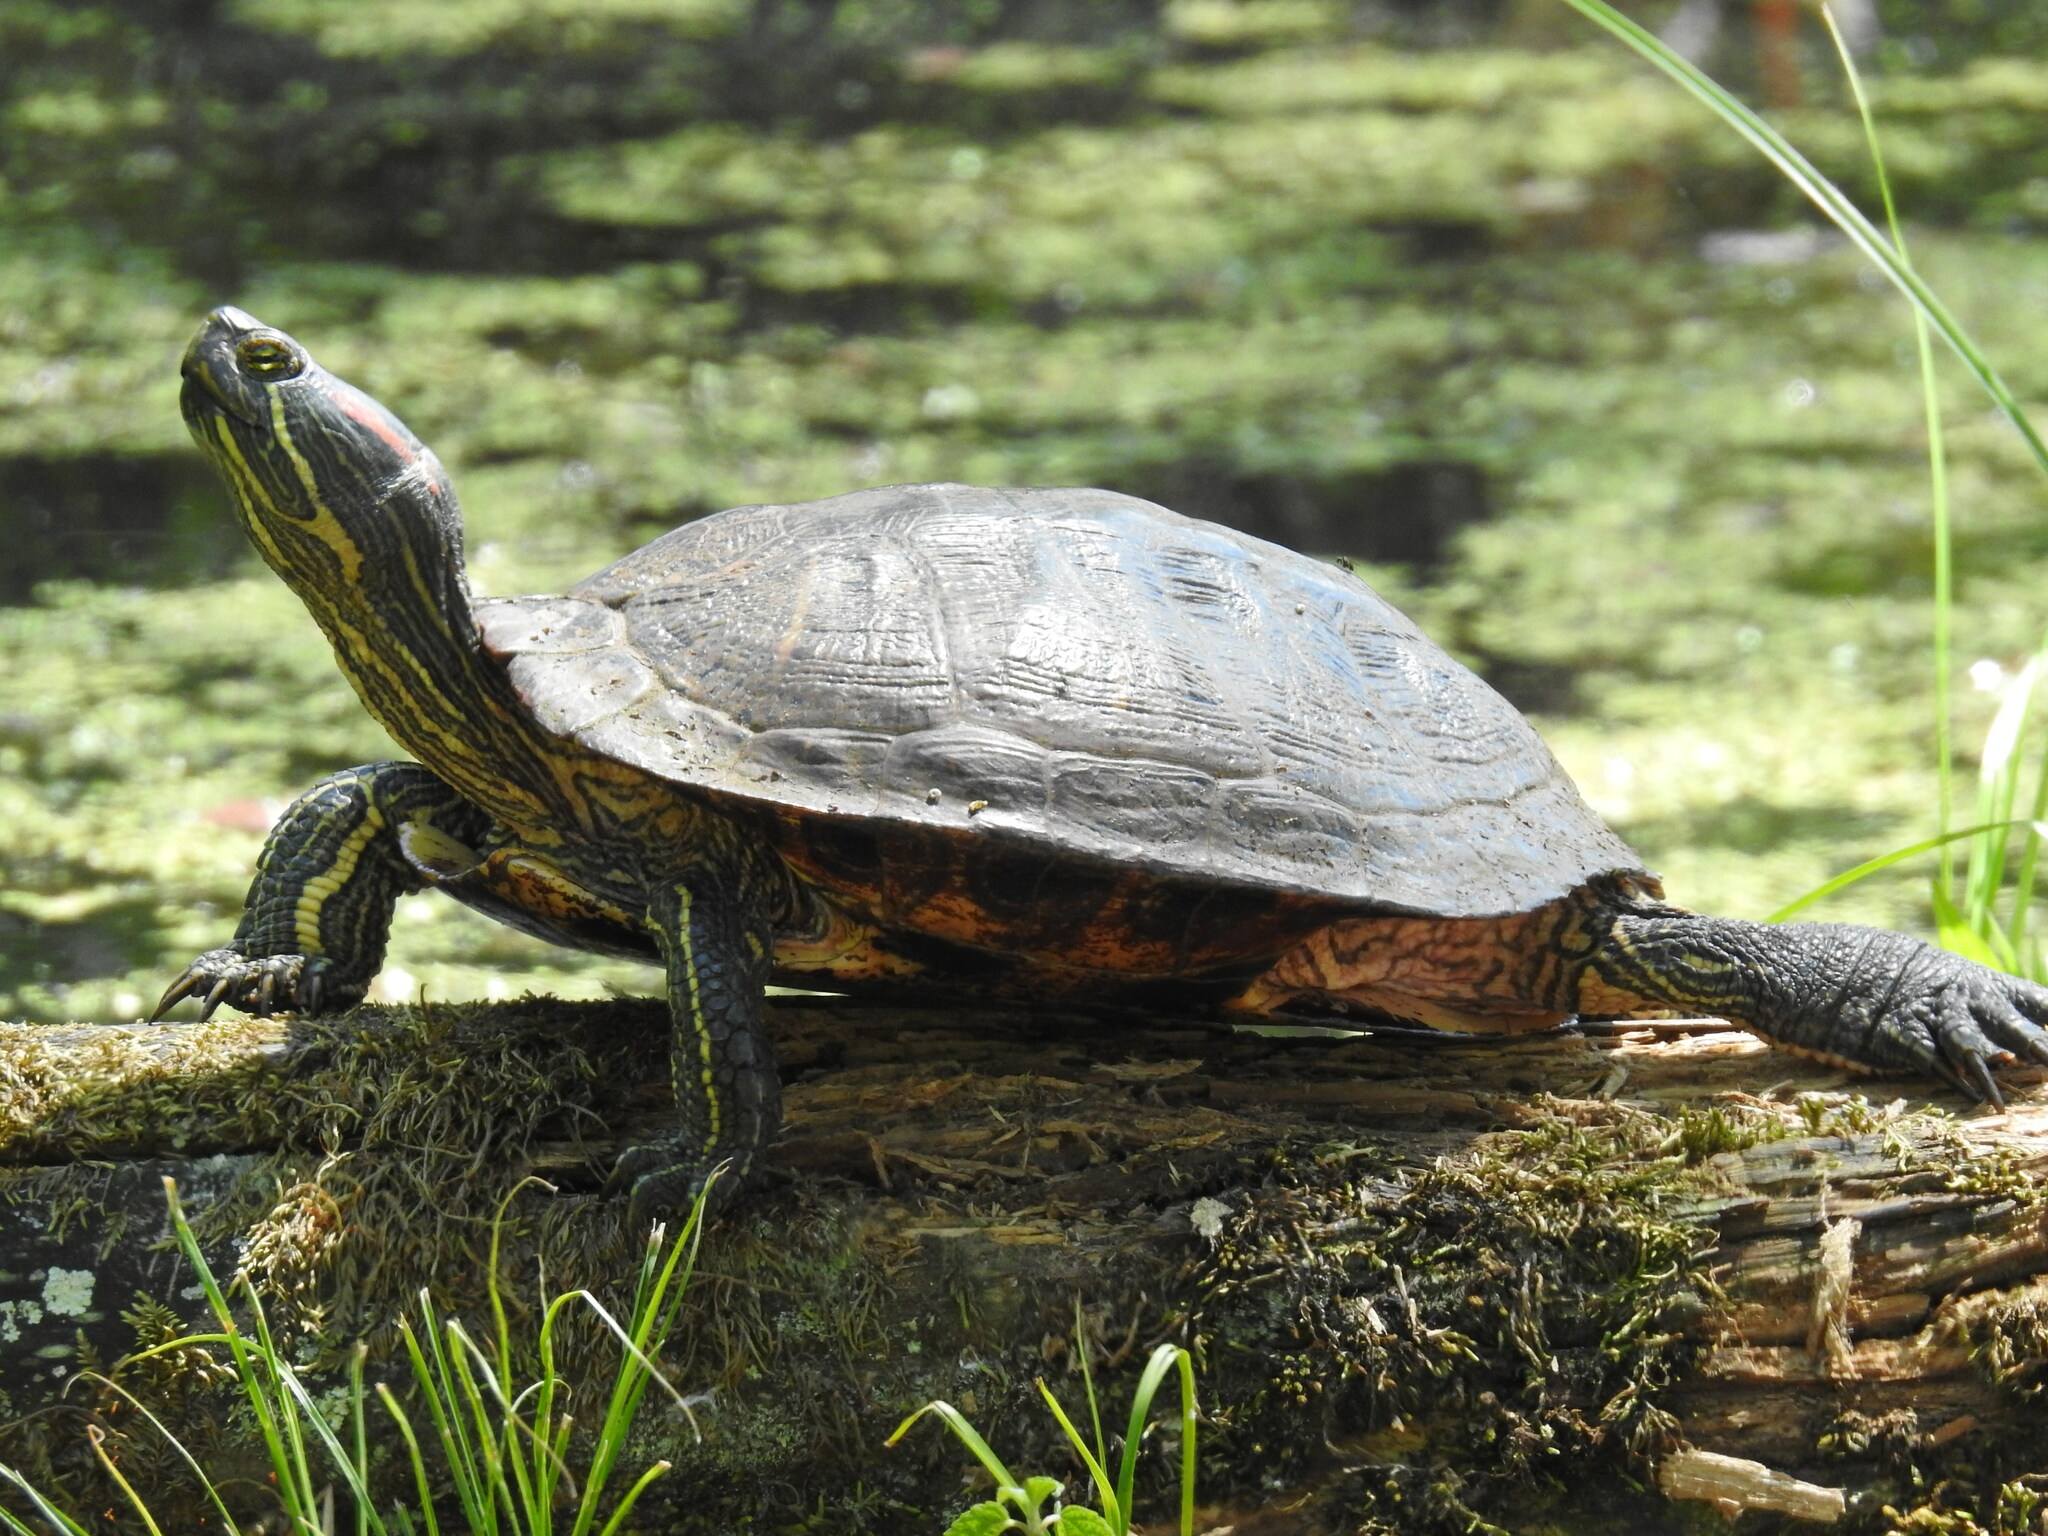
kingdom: Animalia
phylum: Chordata
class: Testudines
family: Emydidae
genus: Trachemys
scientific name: Trachemys scripta
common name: Slider
